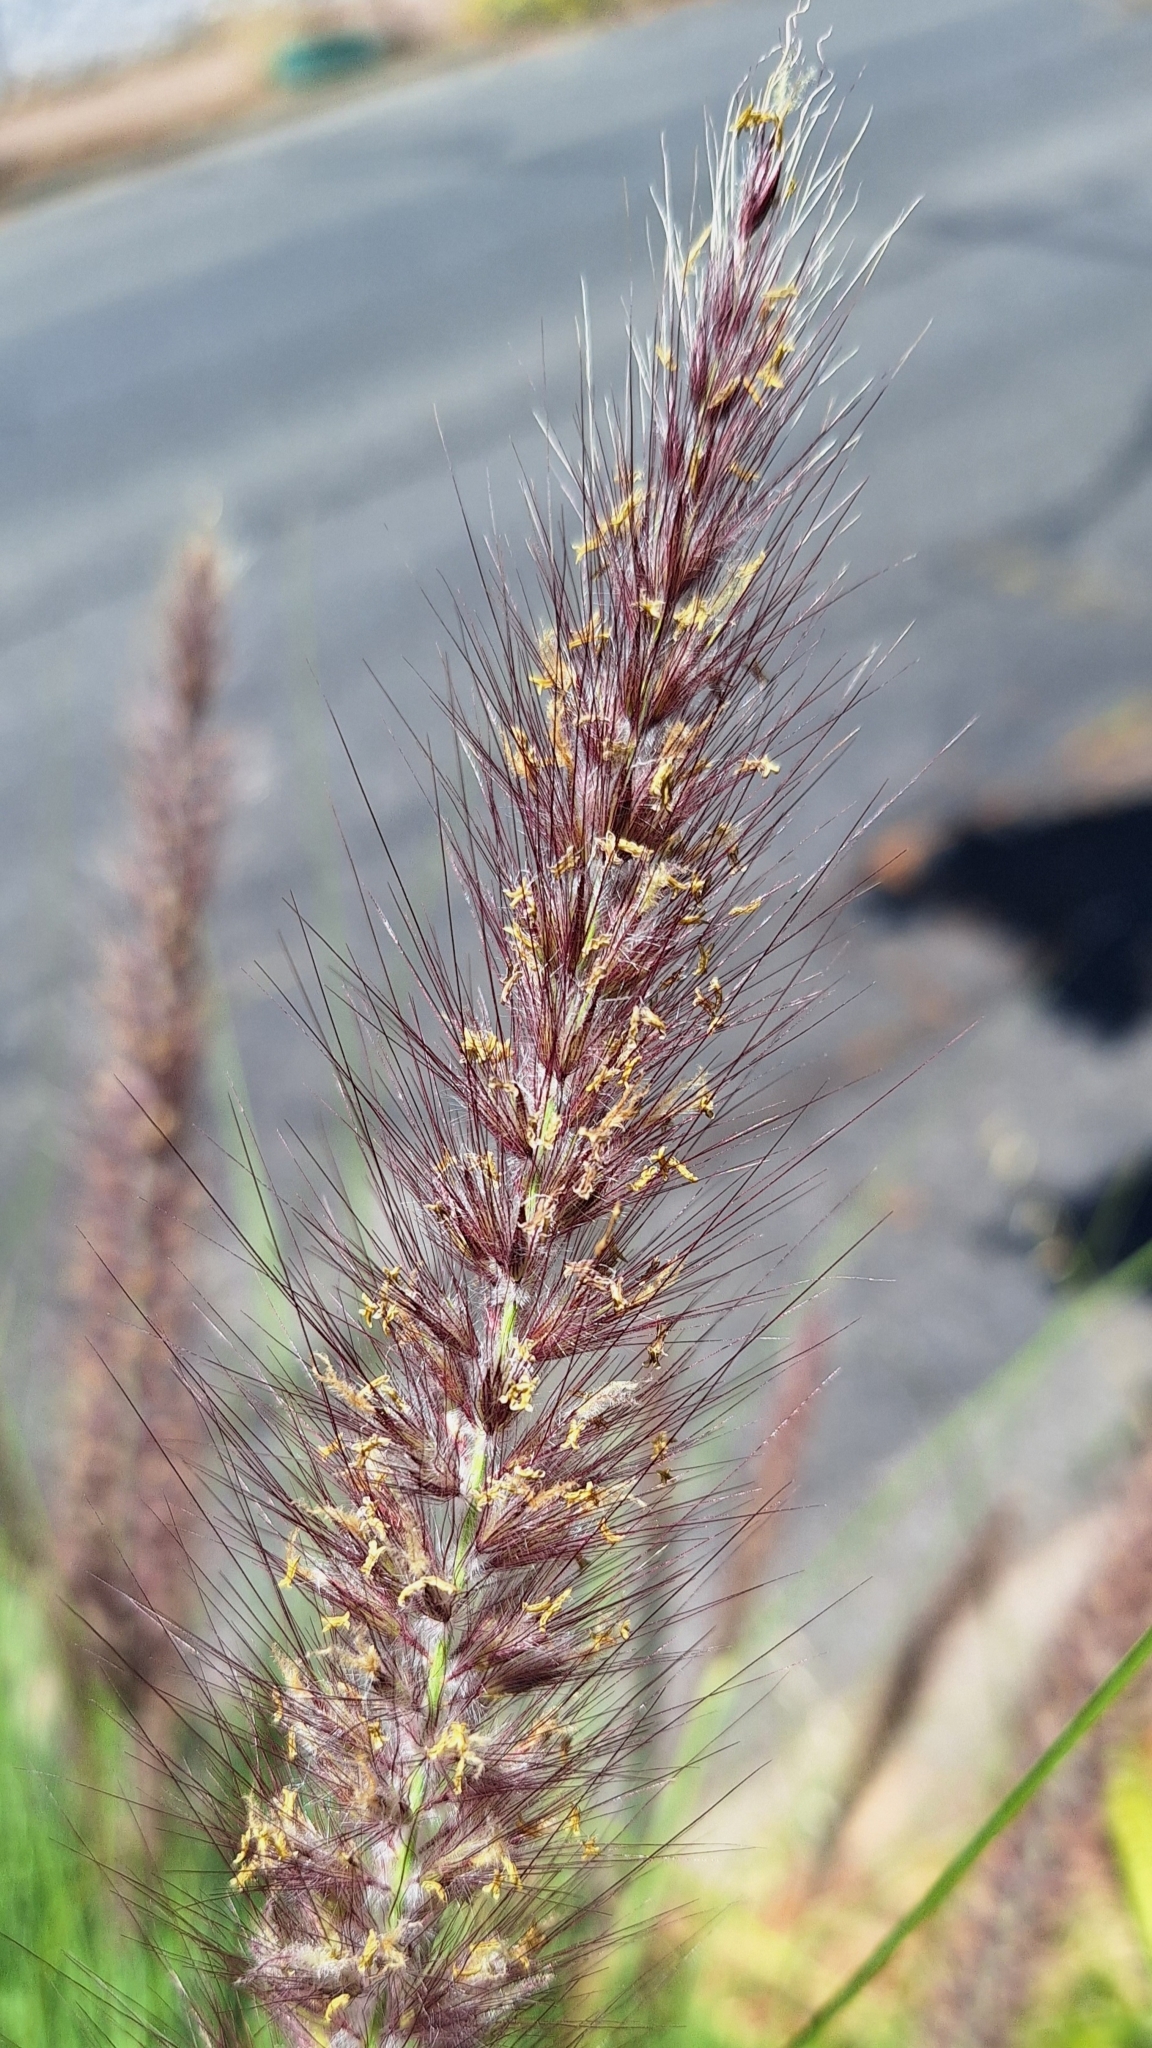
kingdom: Plantae
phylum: Tracheophyta
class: Liliopsida
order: Poales
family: Poaceae
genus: Cenchrus
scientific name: Cenchrus setaceus
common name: Crimson fountaingrass
